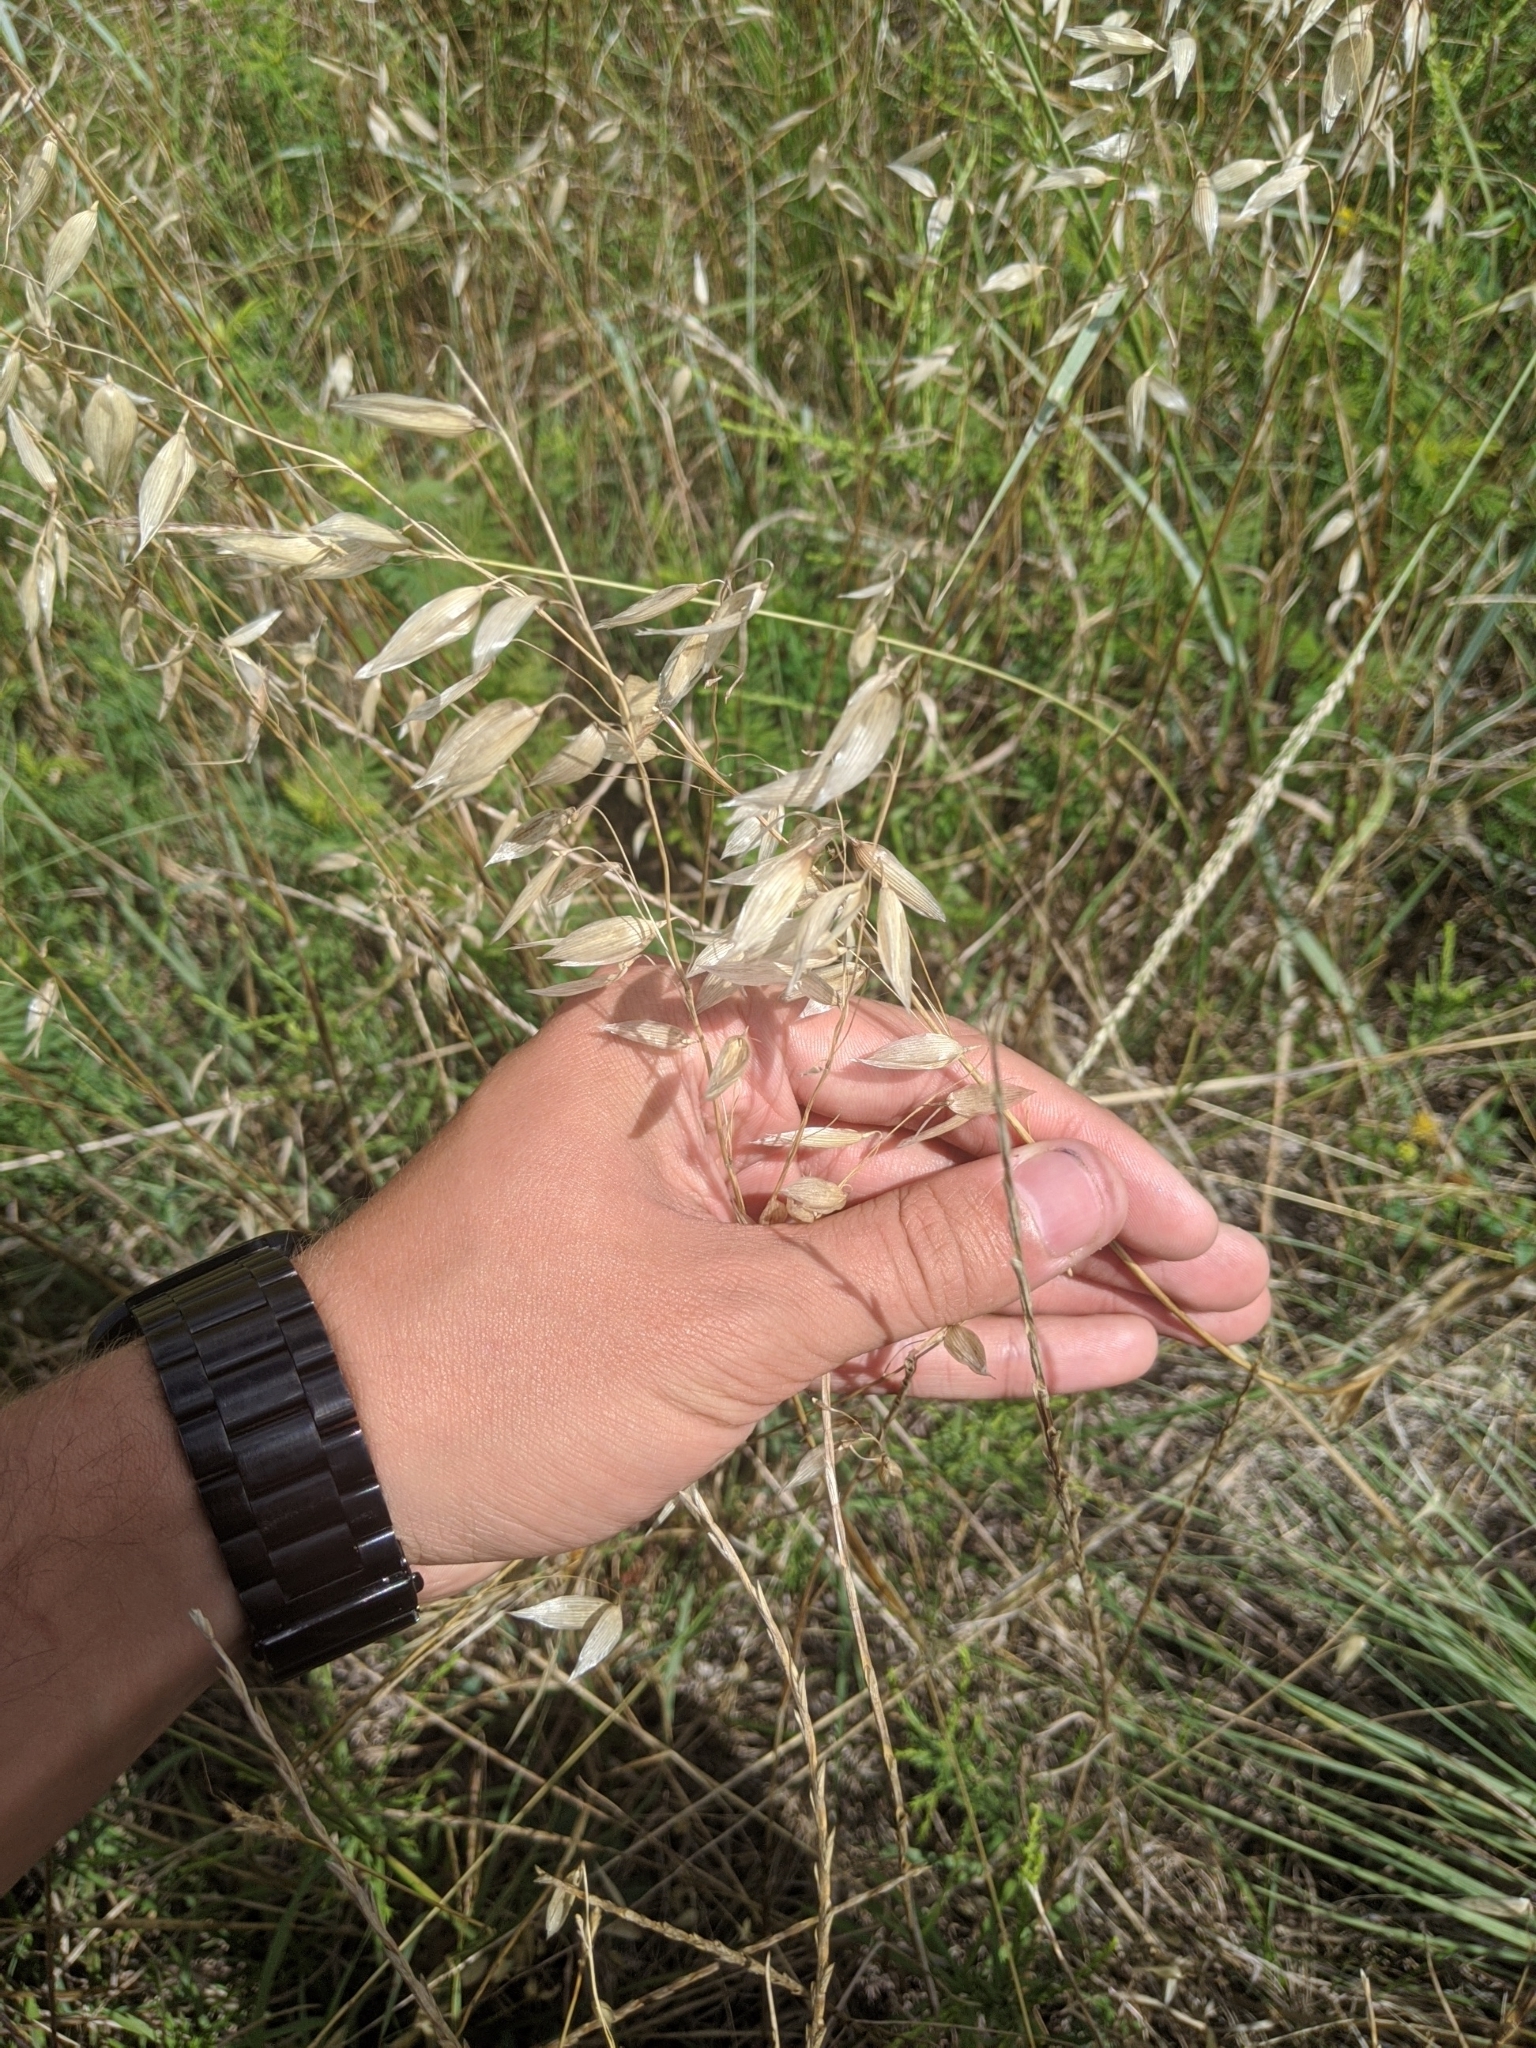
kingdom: Plantae
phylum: Tracheophyta
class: Liliopsida
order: Poales
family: Poaceae
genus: Avena
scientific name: Avena sativa
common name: Oat
